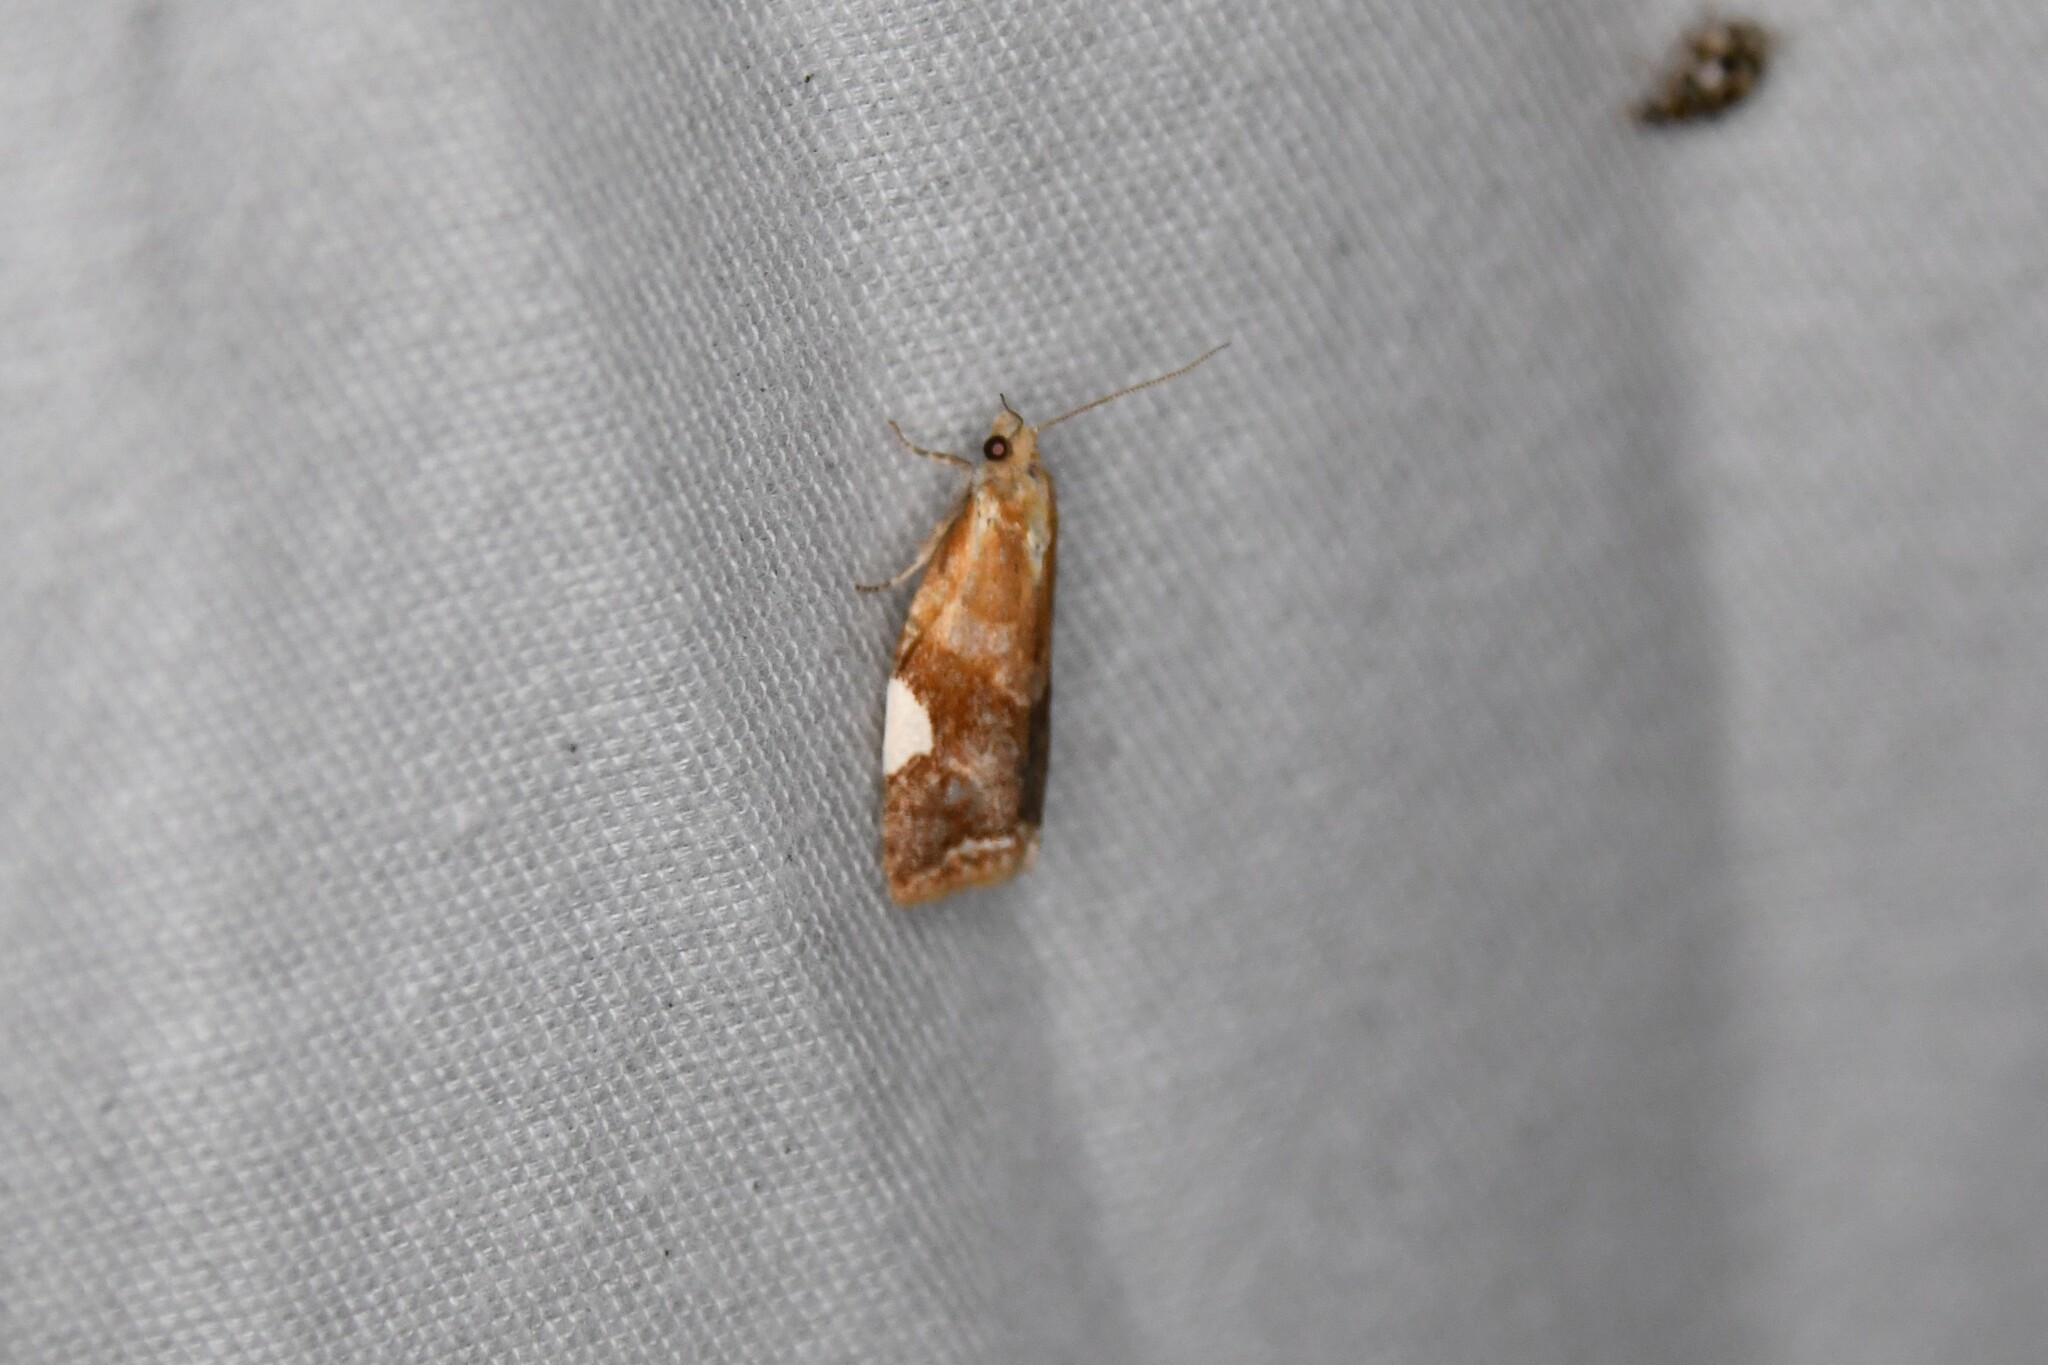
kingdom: Animalia
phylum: Arthropoda
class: Insecta
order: Lepidoptera
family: Tortricidae
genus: Clepsis
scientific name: Clepsis persicana
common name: White triangle tortrix
